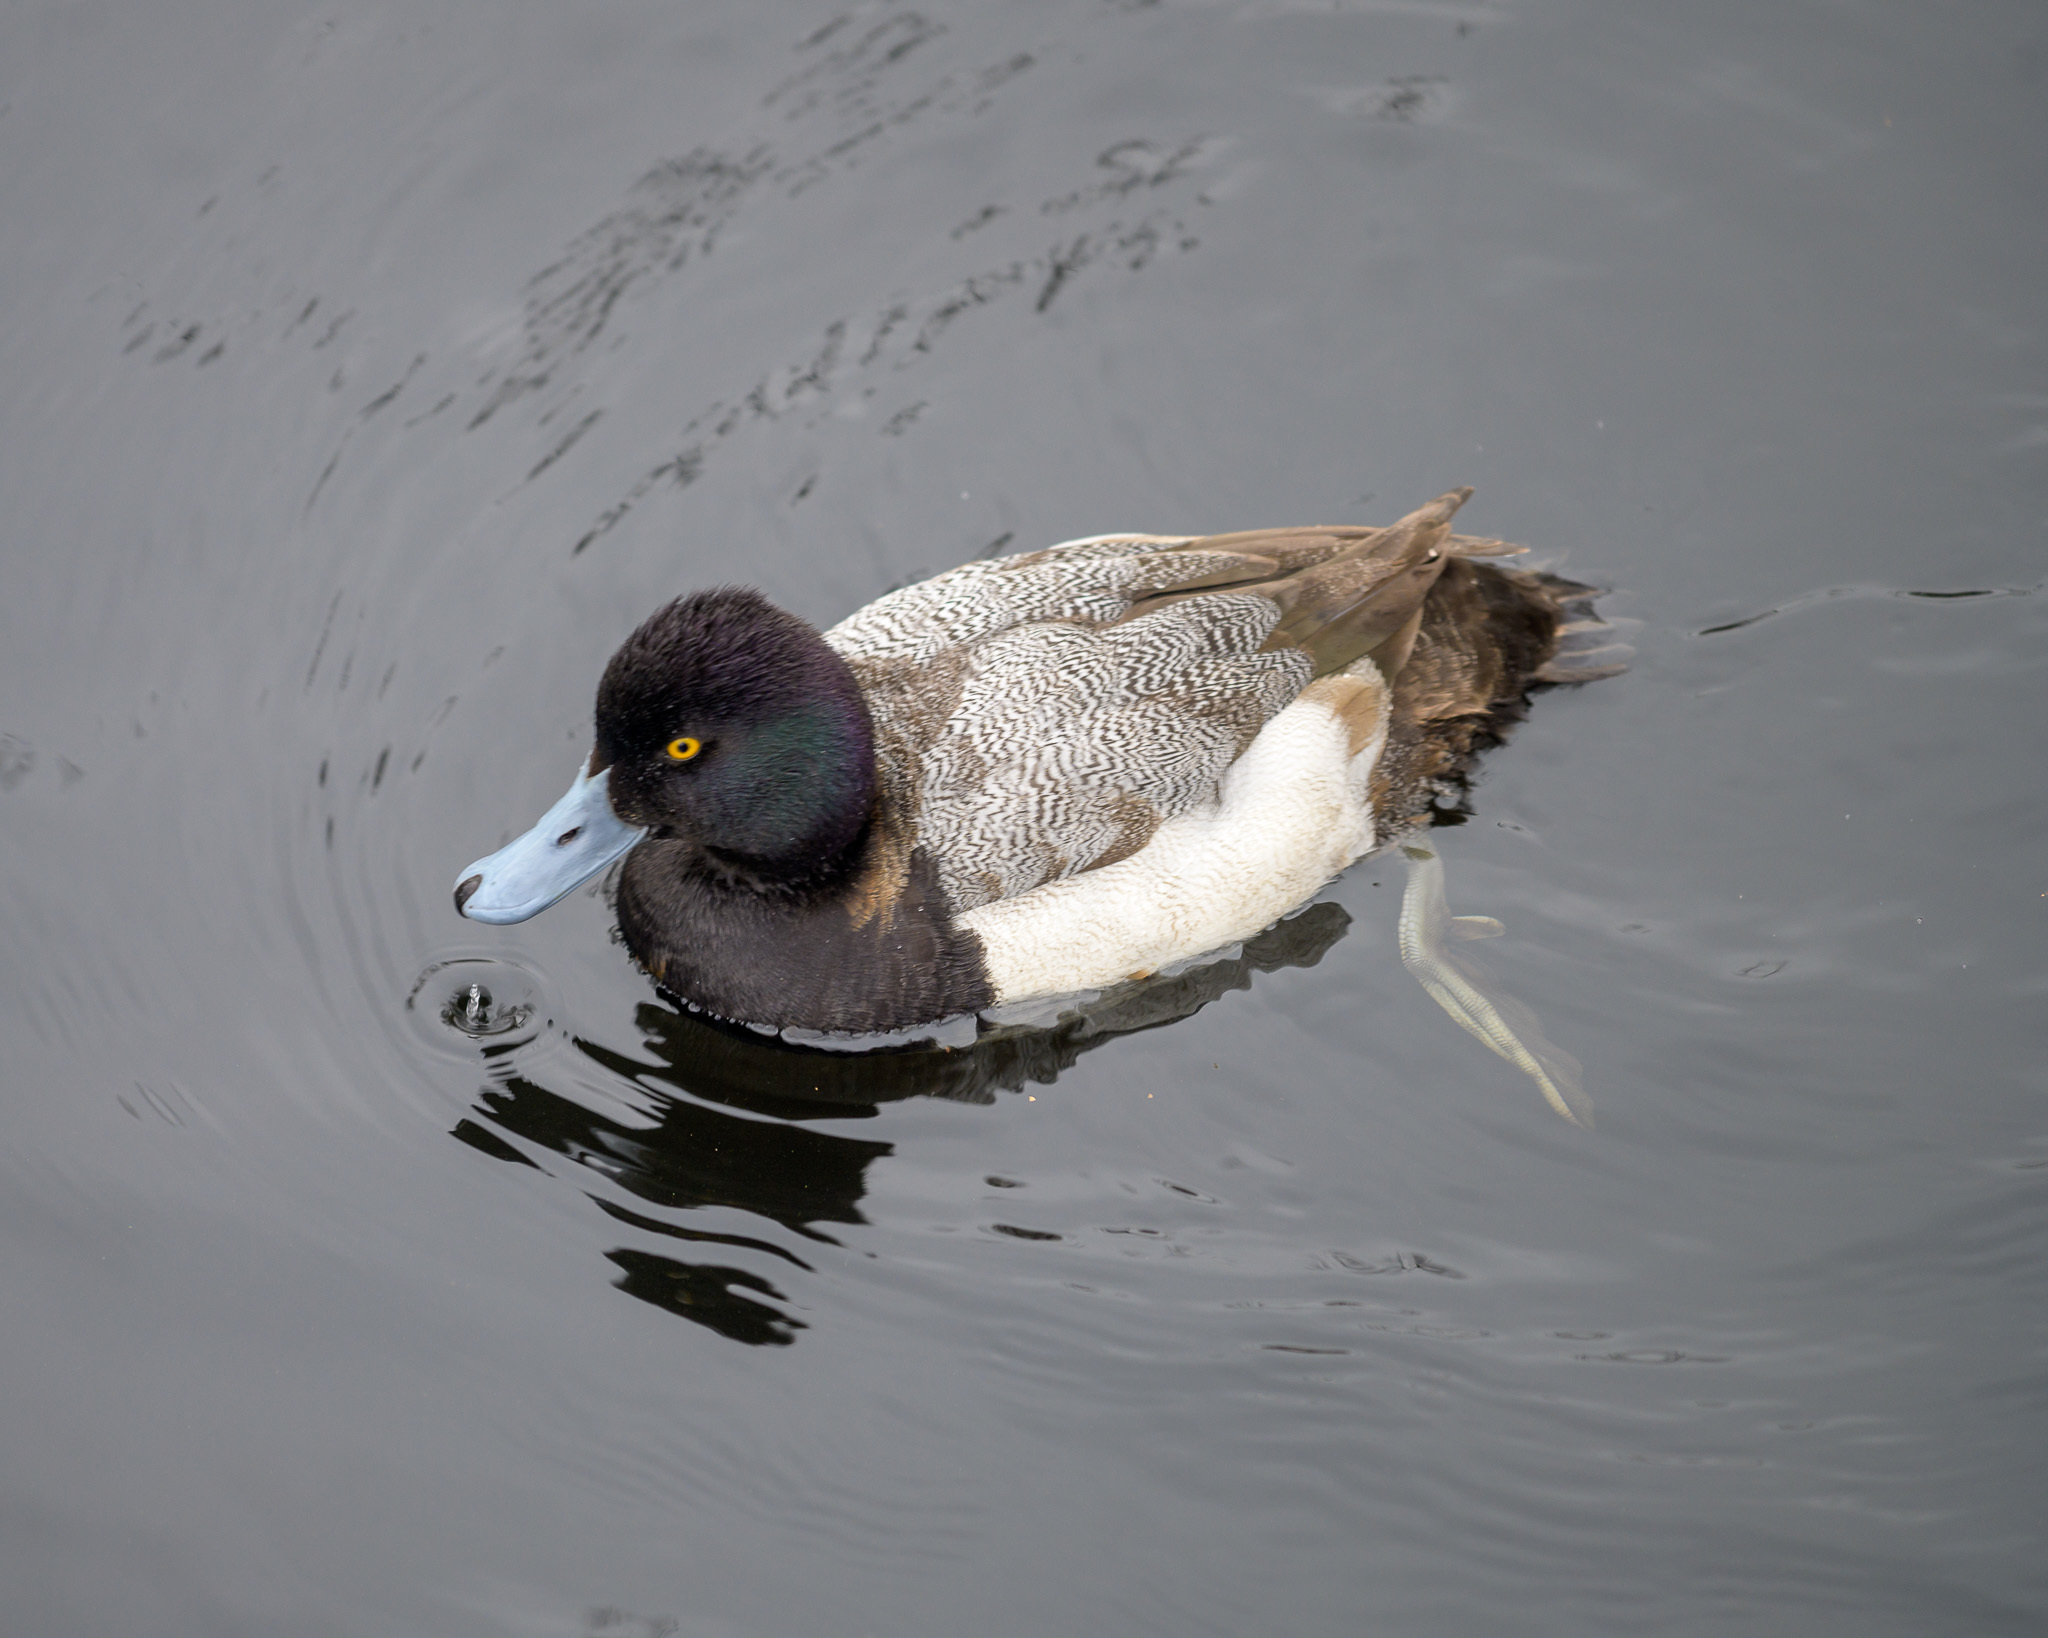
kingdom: Animalia
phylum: Chordata
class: Aves
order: Anseriformes
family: Anatidae
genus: Aythya
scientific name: Aythya marila
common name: Greater scaup
